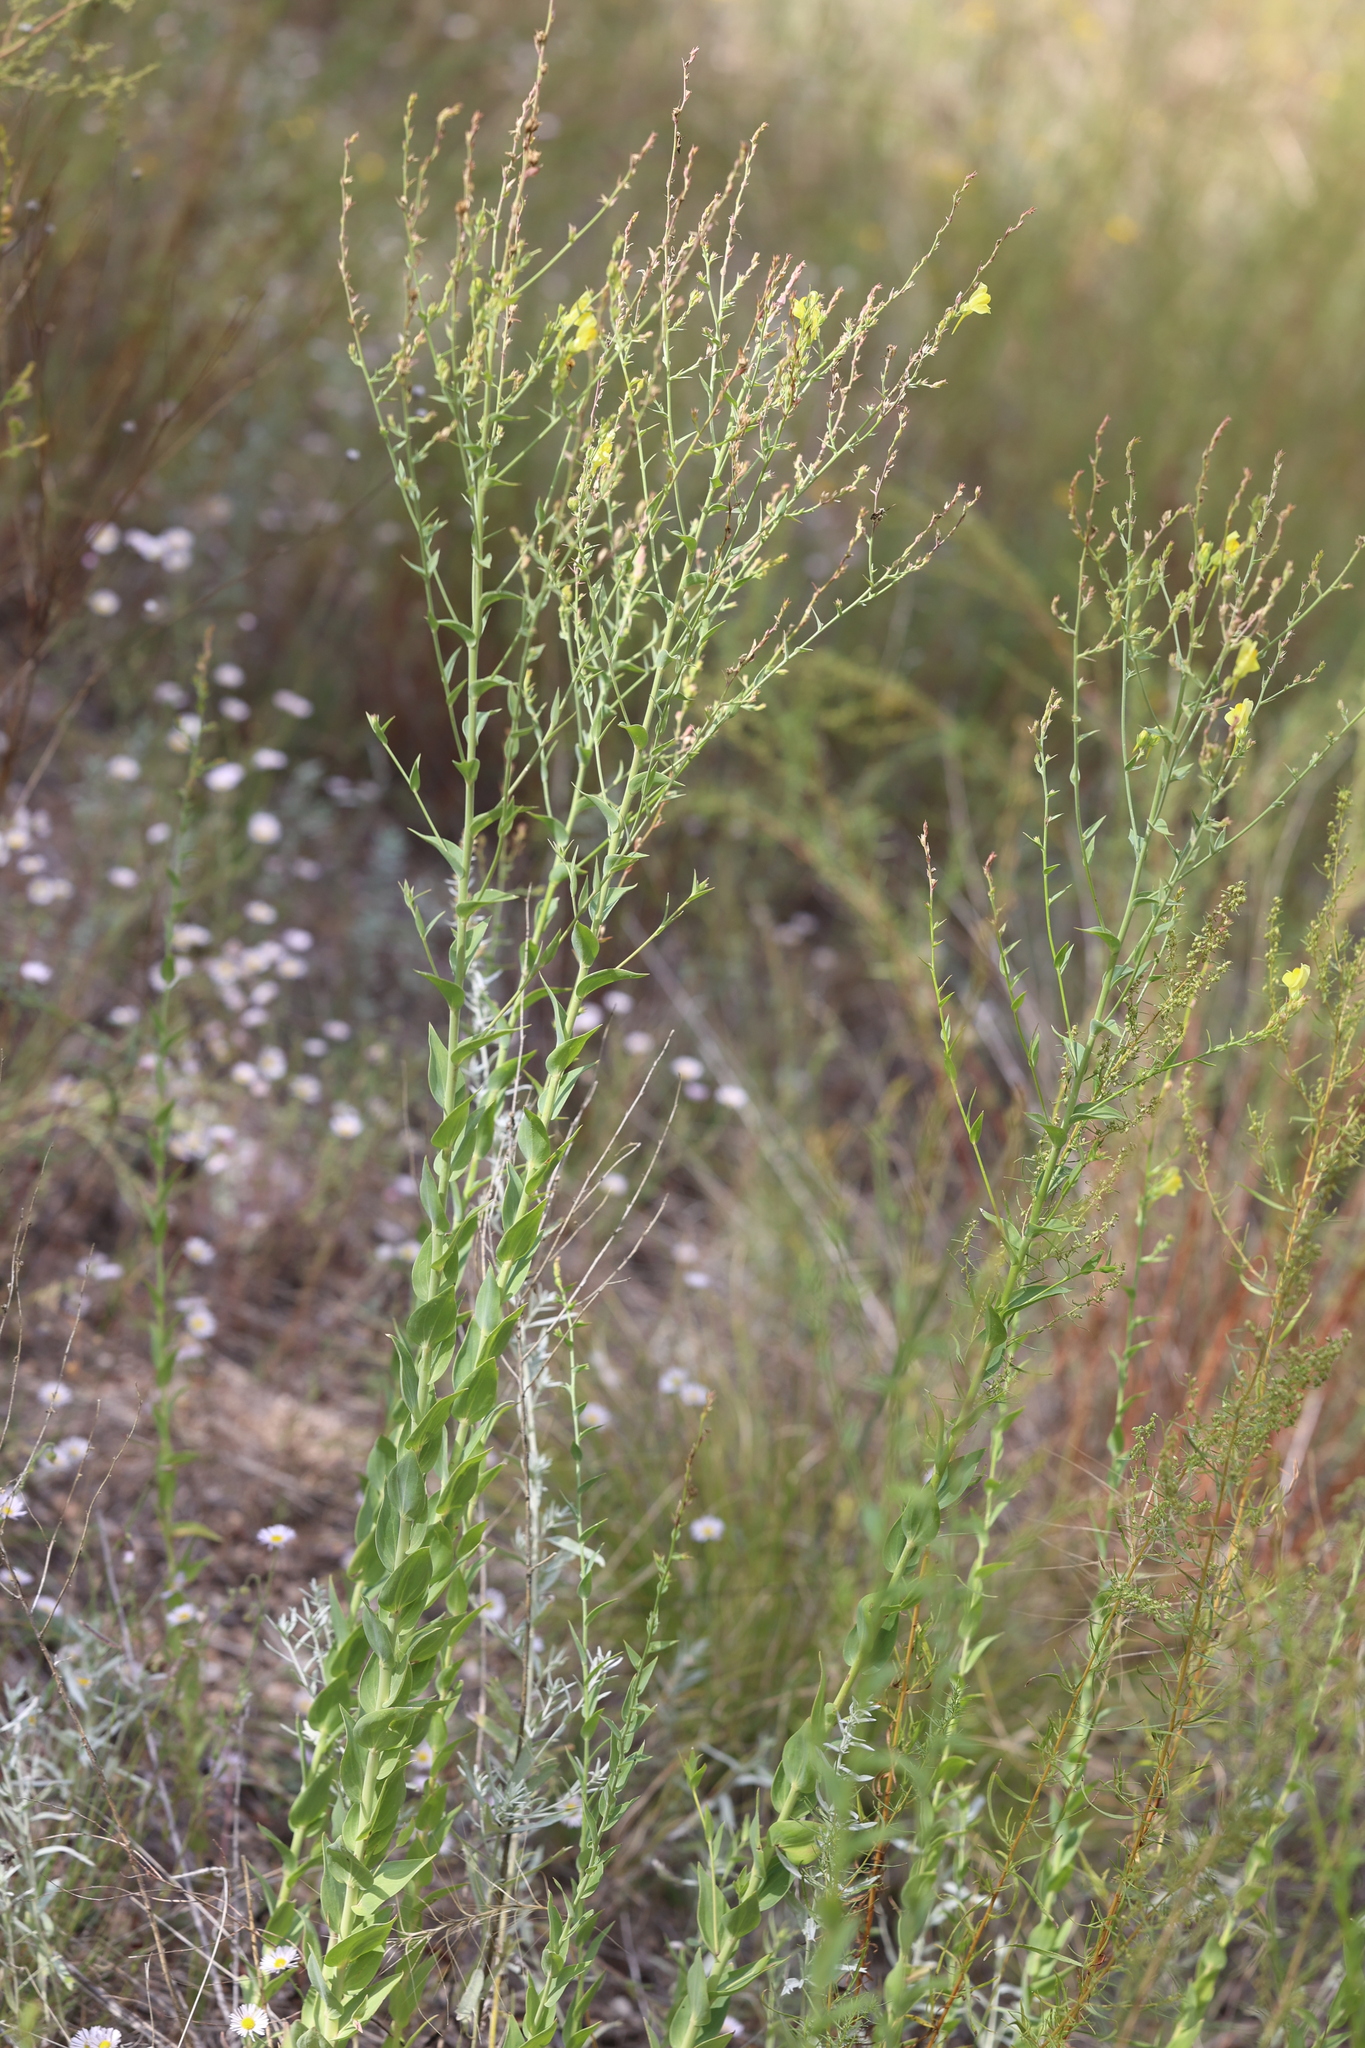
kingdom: Plantae
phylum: Tracheophyta
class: Magnoliopsida
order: Lamiales
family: Plantaginaceae
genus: Linaria
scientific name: Linaria dalmatica
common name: Dalmatian toadflax
